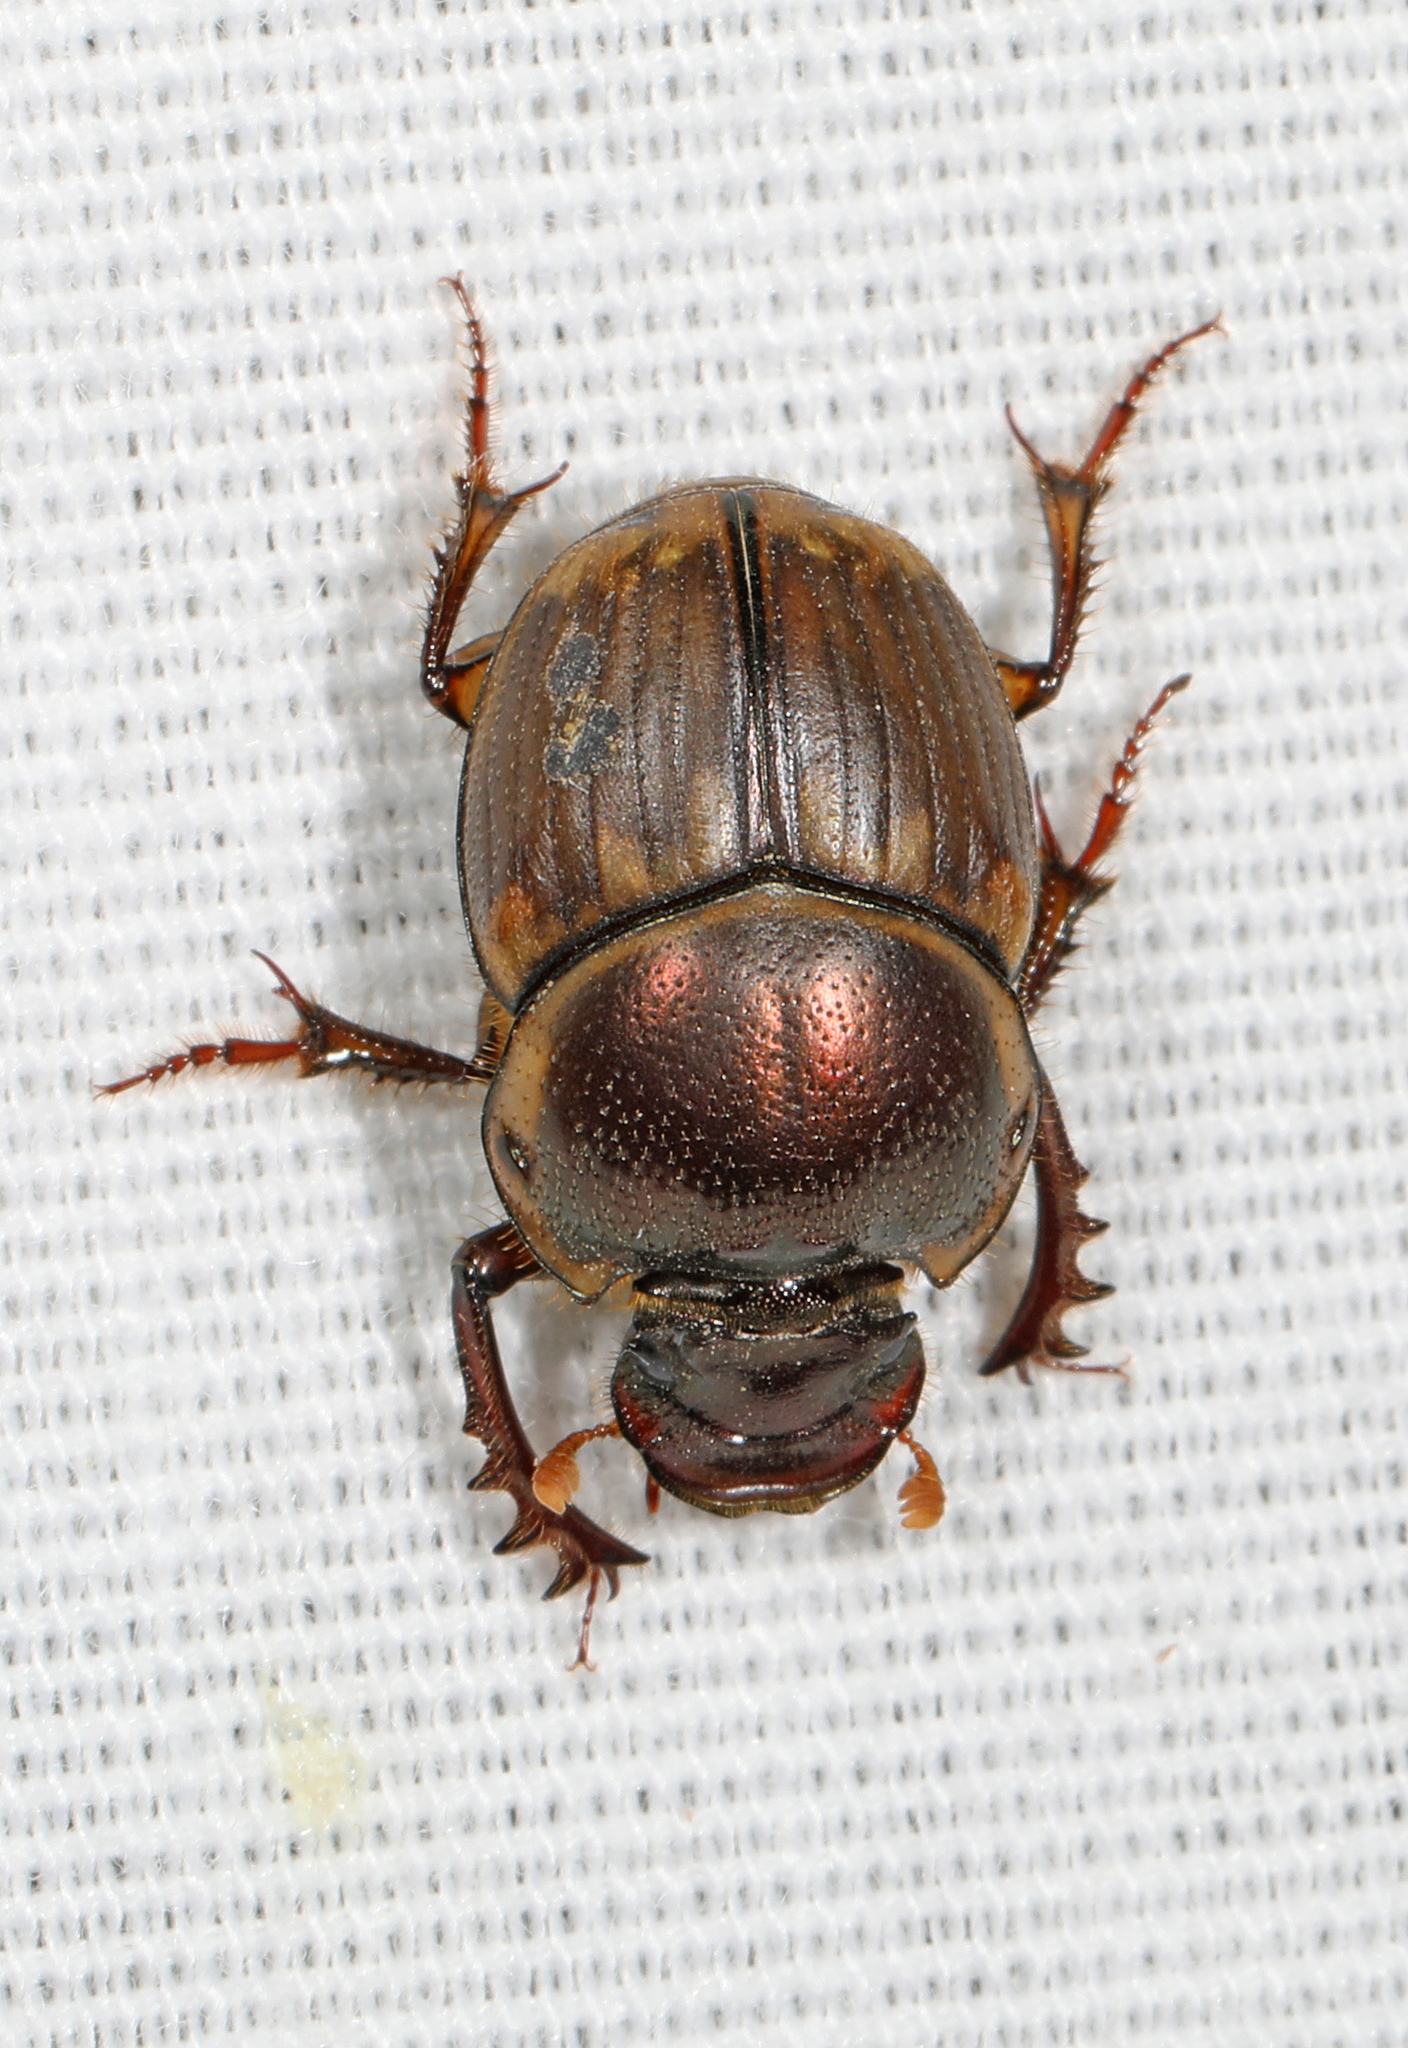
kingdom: Animalia
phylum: Arthropoda
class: Insecta
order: Coleoptera
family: Scarabaeidae
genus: Digitonthophagus
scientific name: Digitonthophagus gazella
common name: Brown dung beetle
